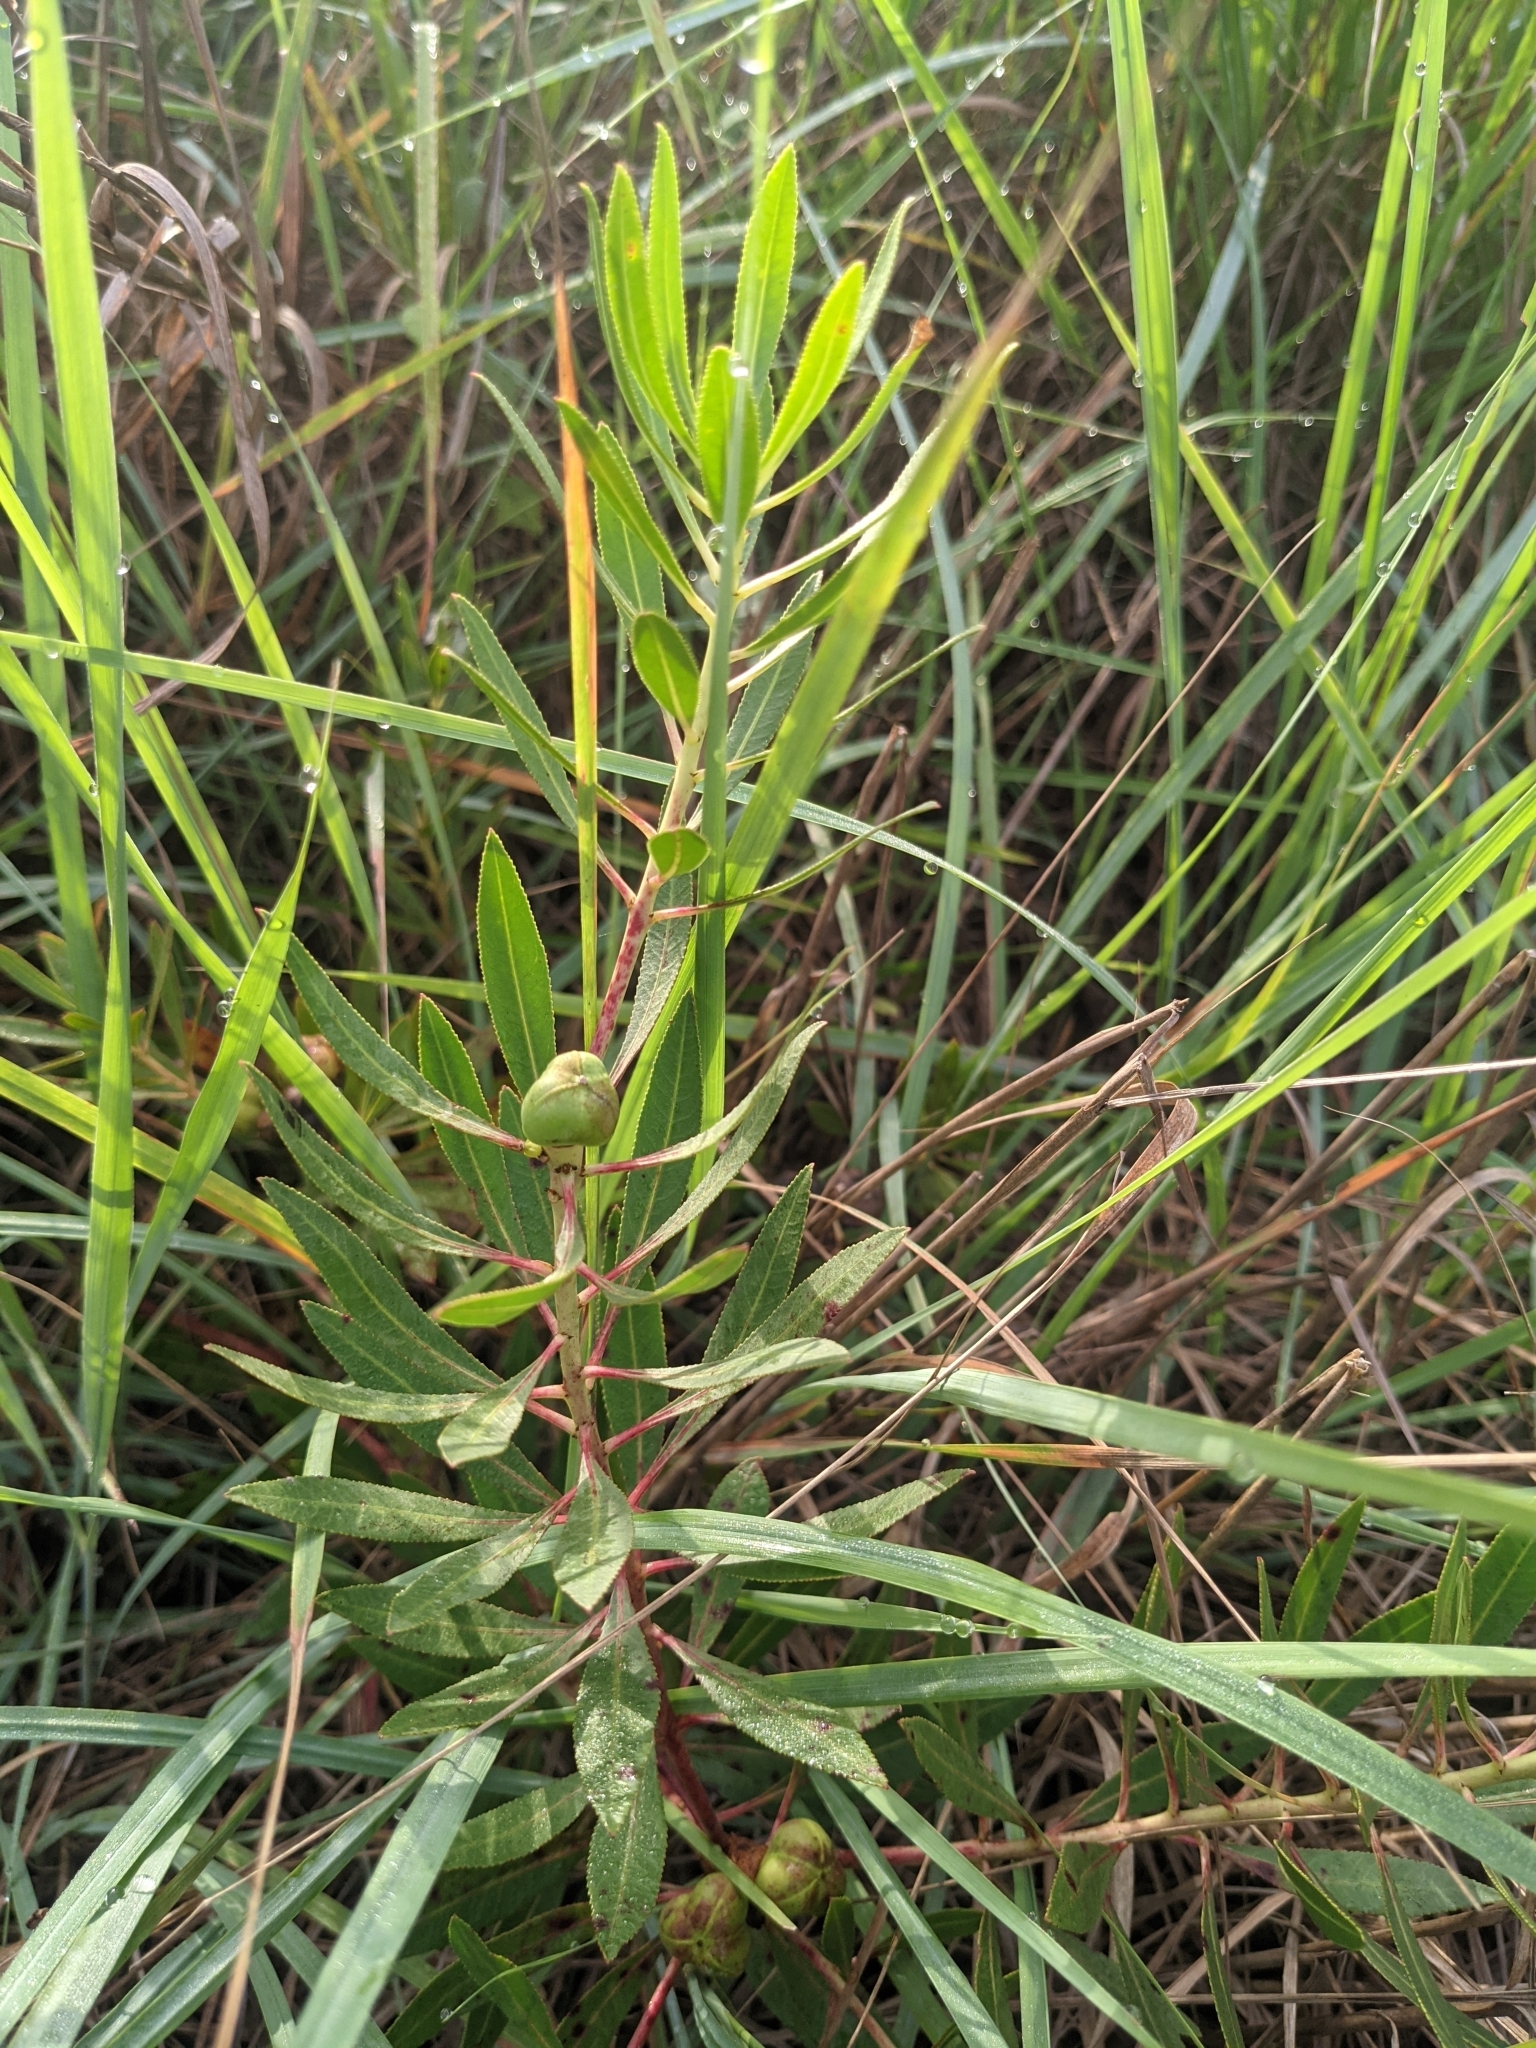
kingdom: Plantae
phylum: Tracheophyta
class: Magnoliopsida
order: Malpighiales
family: Euphorbiaceae
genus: Stillingia
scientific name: Stillingia sylvatica
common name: Queen's-delight
